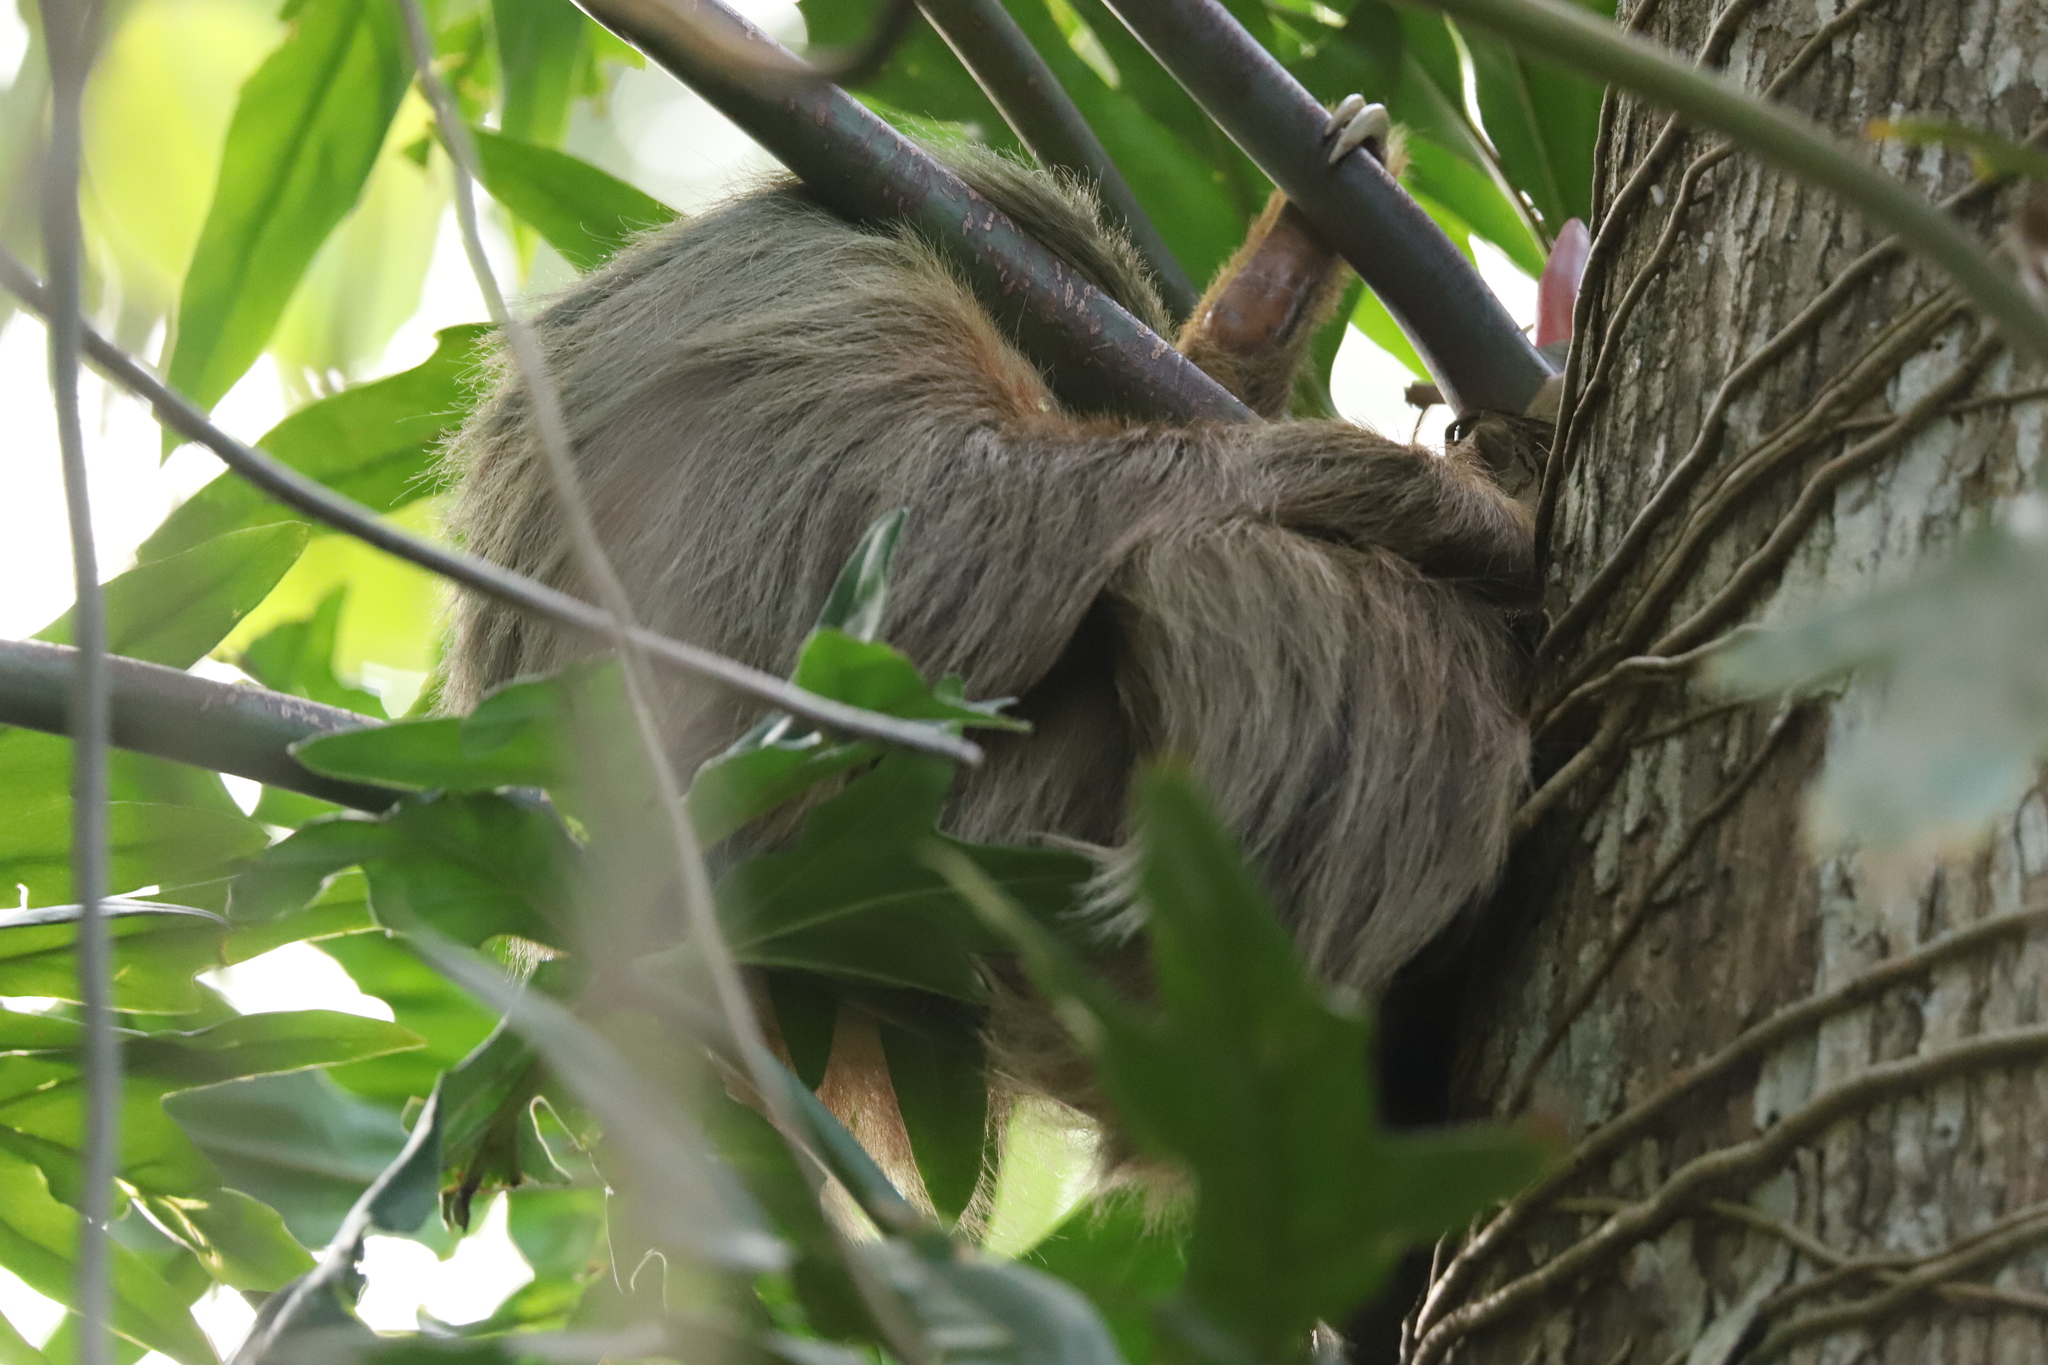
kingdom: Animalia
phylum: Chordata
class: Mammalia
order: Pilosa
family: Megalonychidae
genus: Choloepus
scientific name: Choloepus hoffmanni
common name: Hoffmann's two-toed sloth
